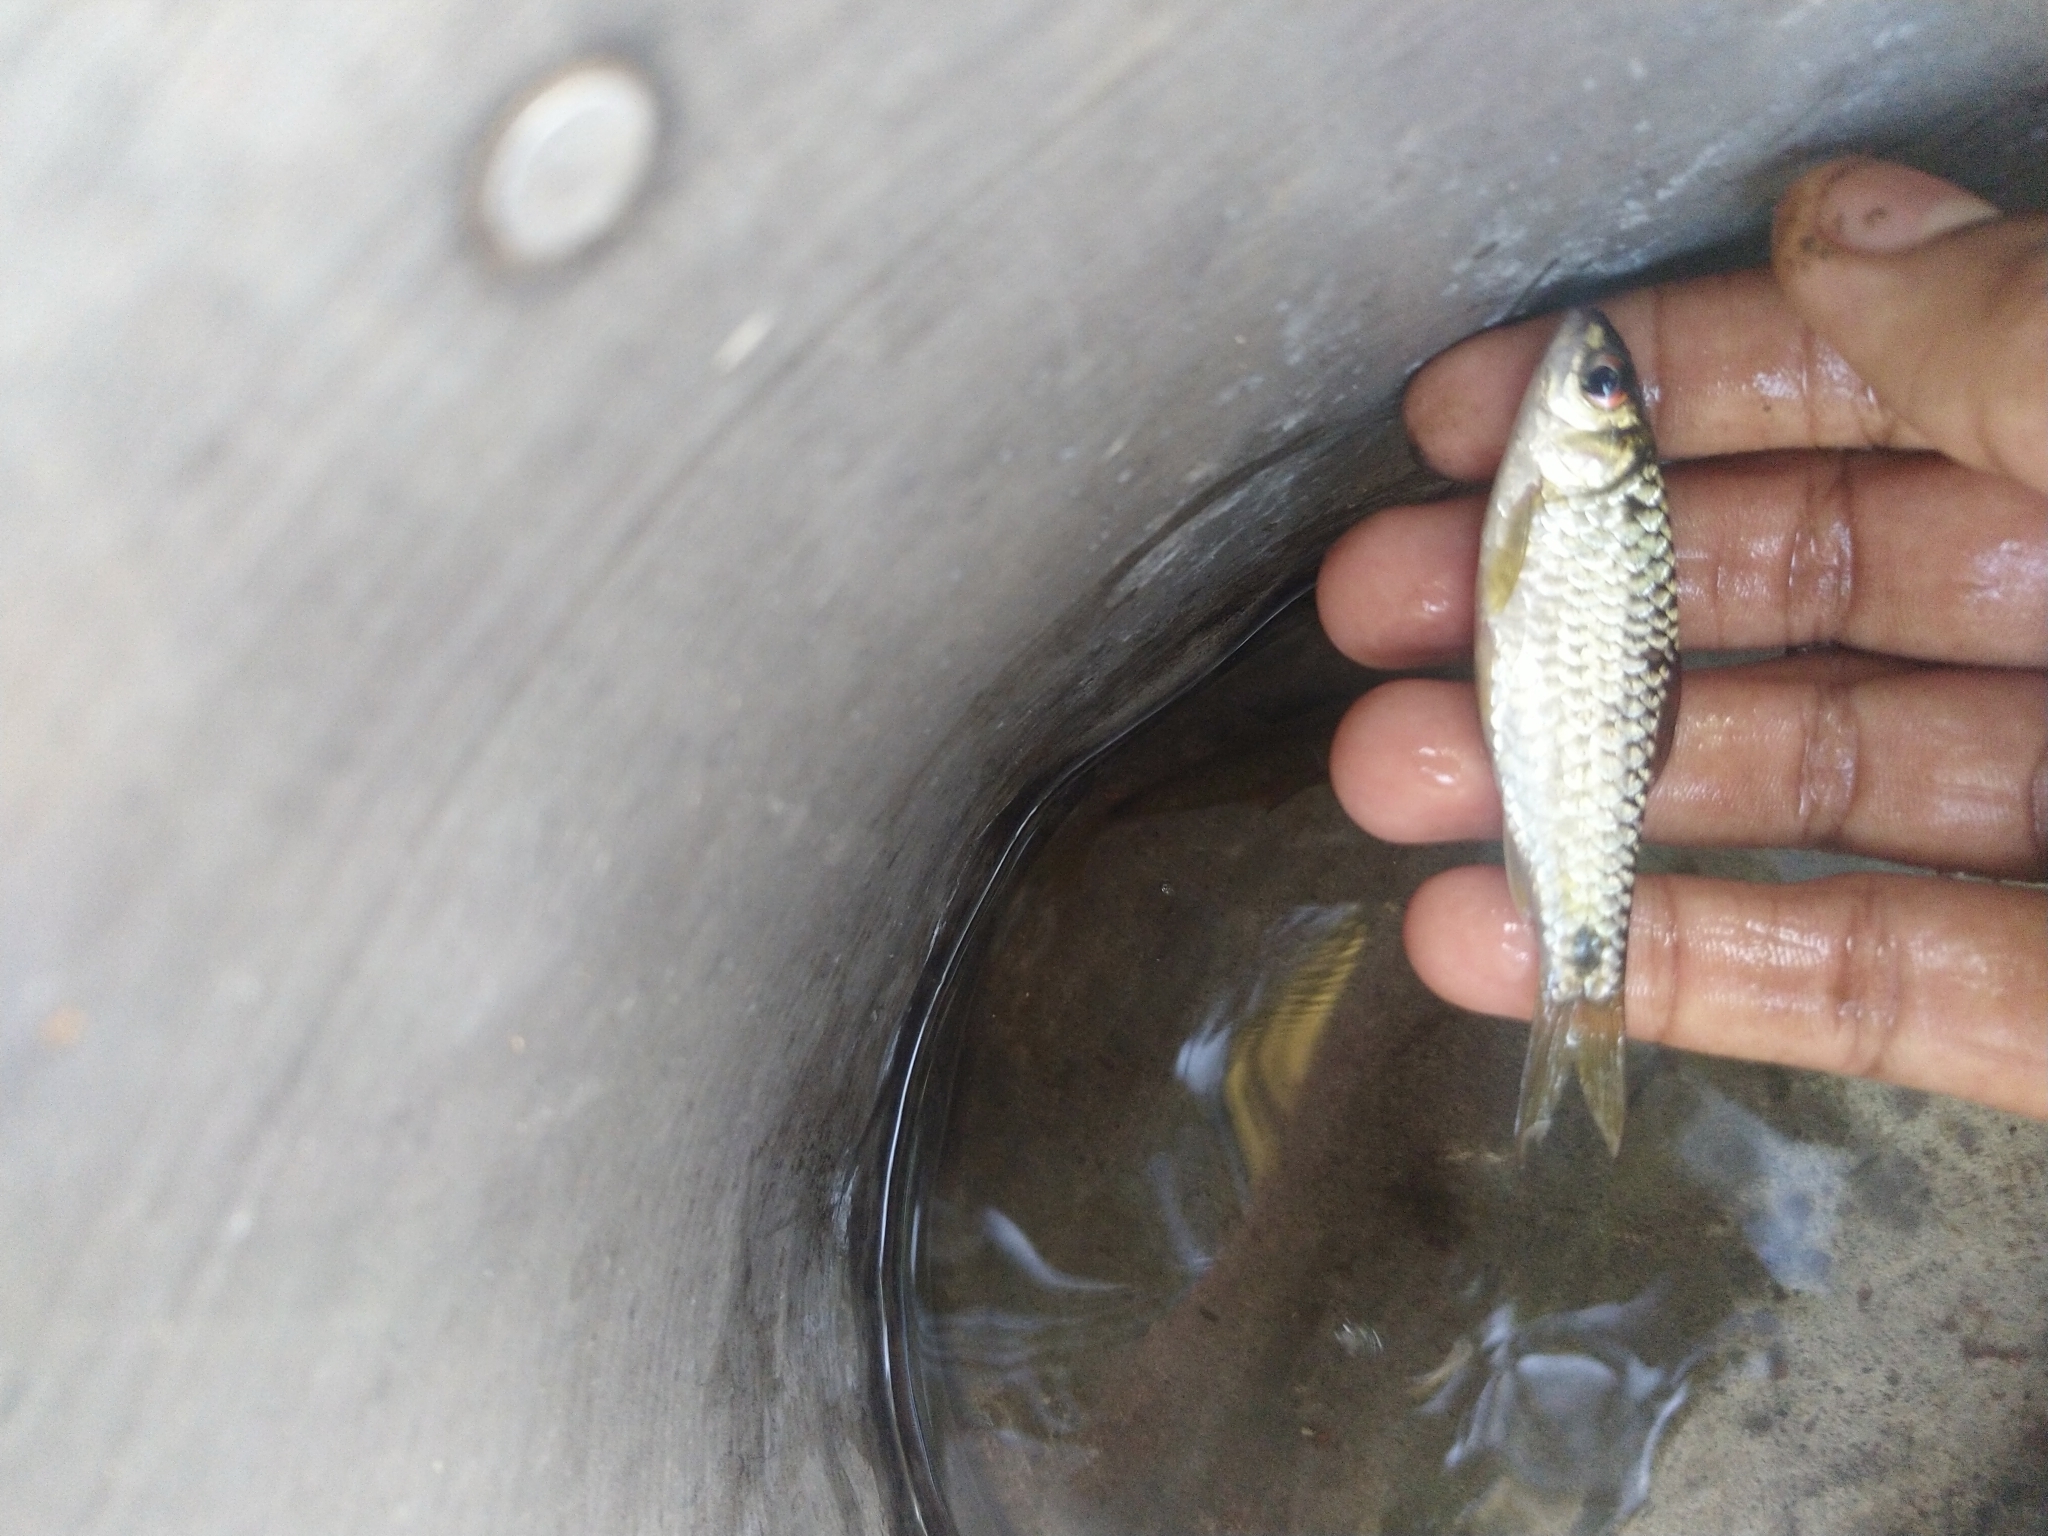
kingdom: Animalia
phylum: Chordata
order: Cypriniformes
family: Cyprinidae
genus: Systomus
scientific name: Systomus sarana
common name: Olive barb
